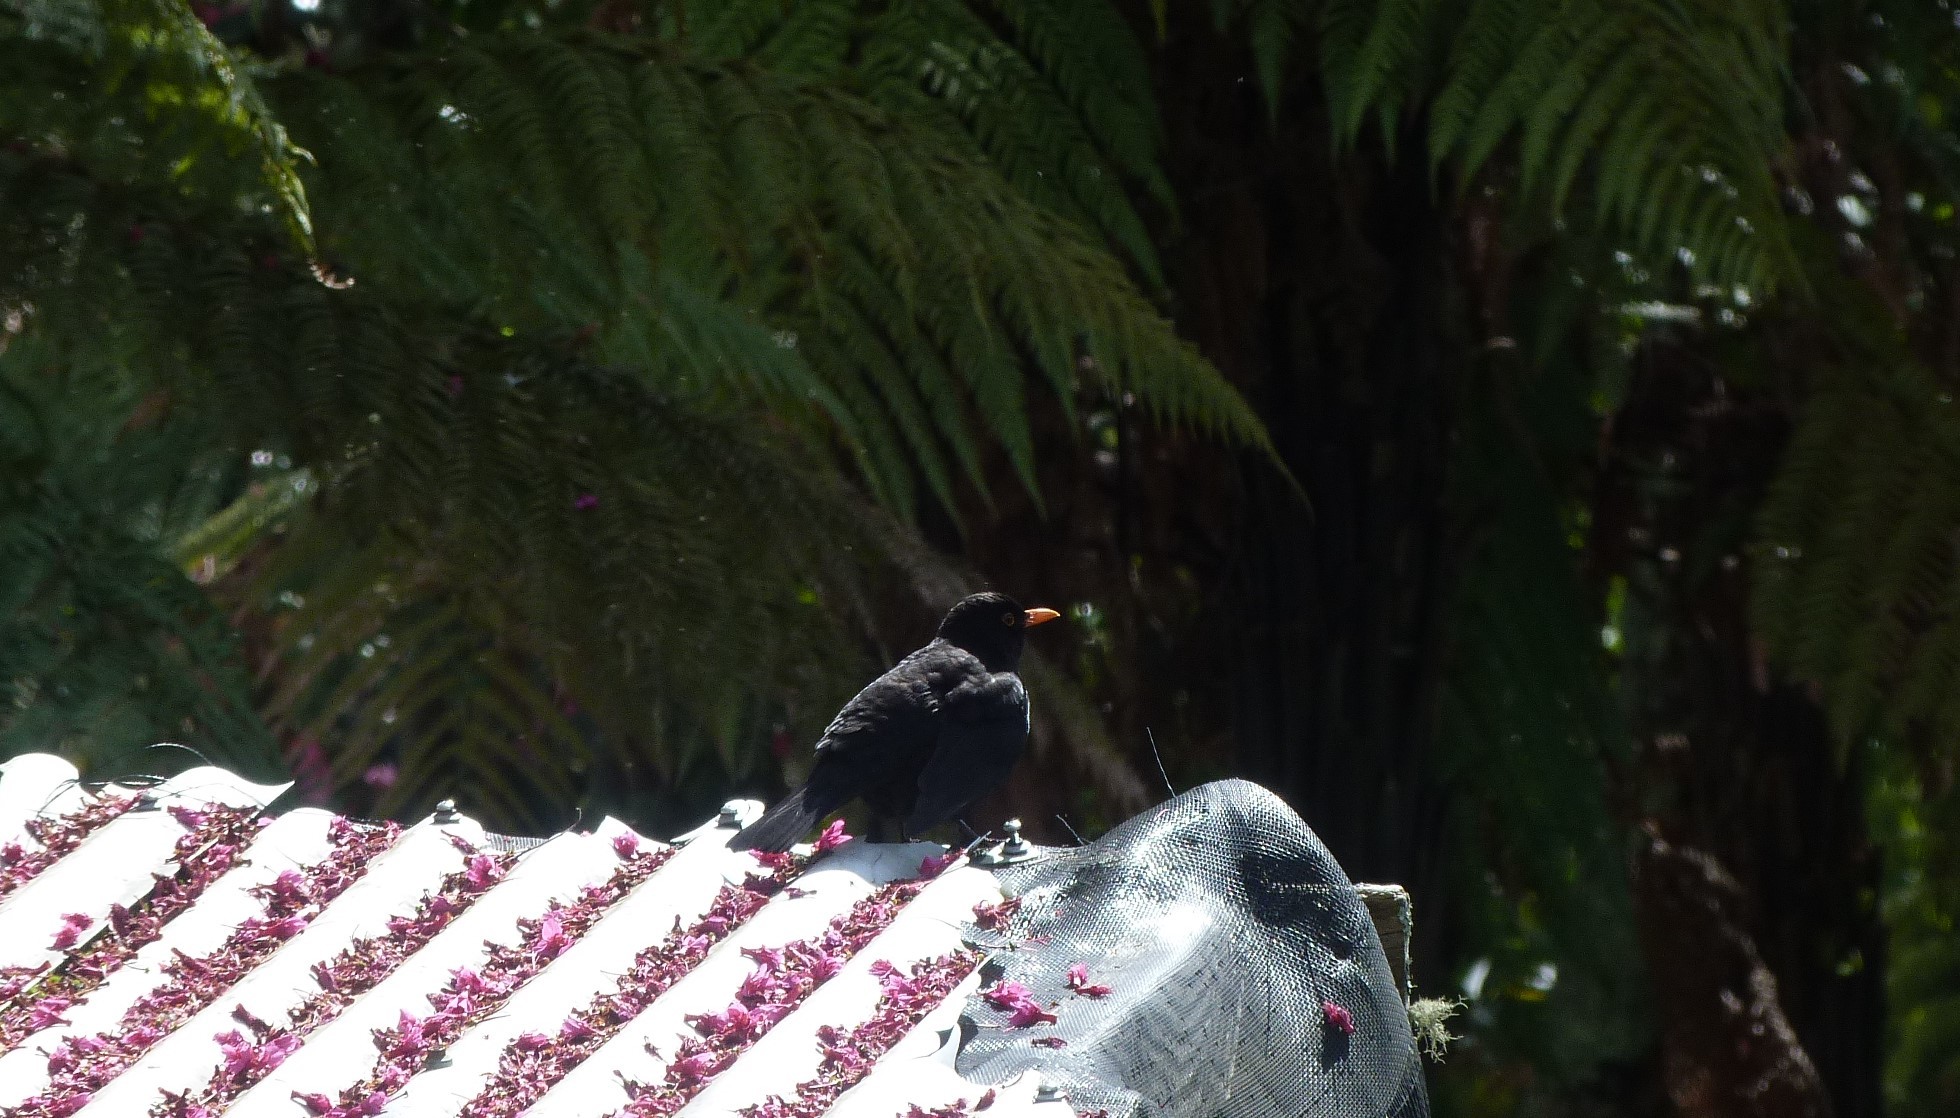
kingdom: Animalia
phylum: Chordata
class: Aves
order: Passeriformes
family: Turdidae
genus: Turdus
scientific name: Turdus merula
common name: Common blackbird
